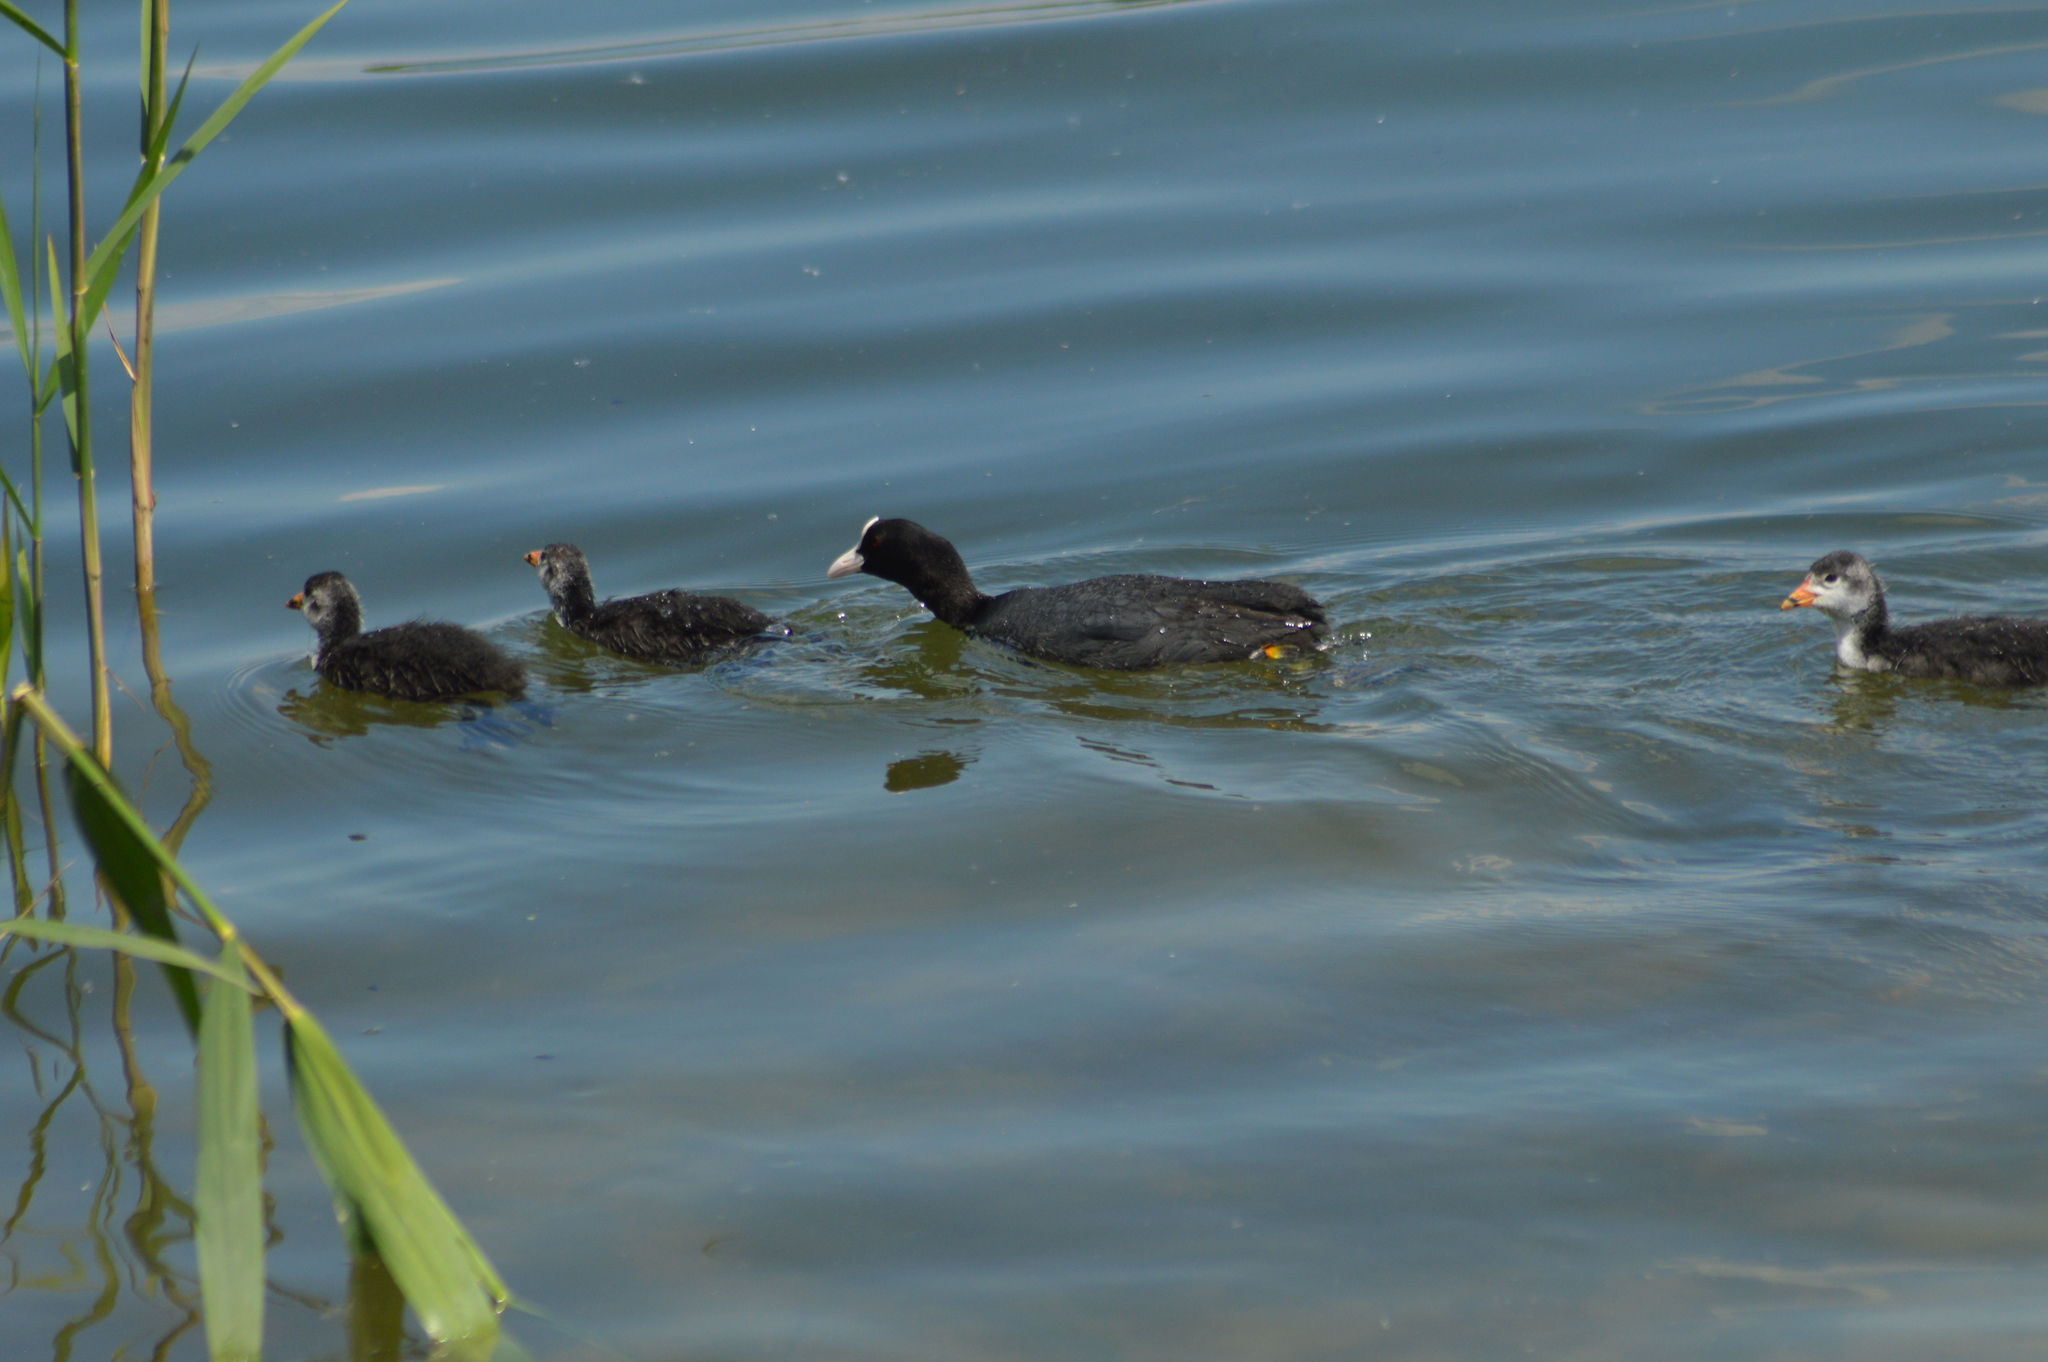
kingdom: Animalia
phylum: Chordata
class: Aves
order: Gruiformes
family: Rallidae
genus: Fulica
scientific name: Fulica atra
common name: Eurasian coot
